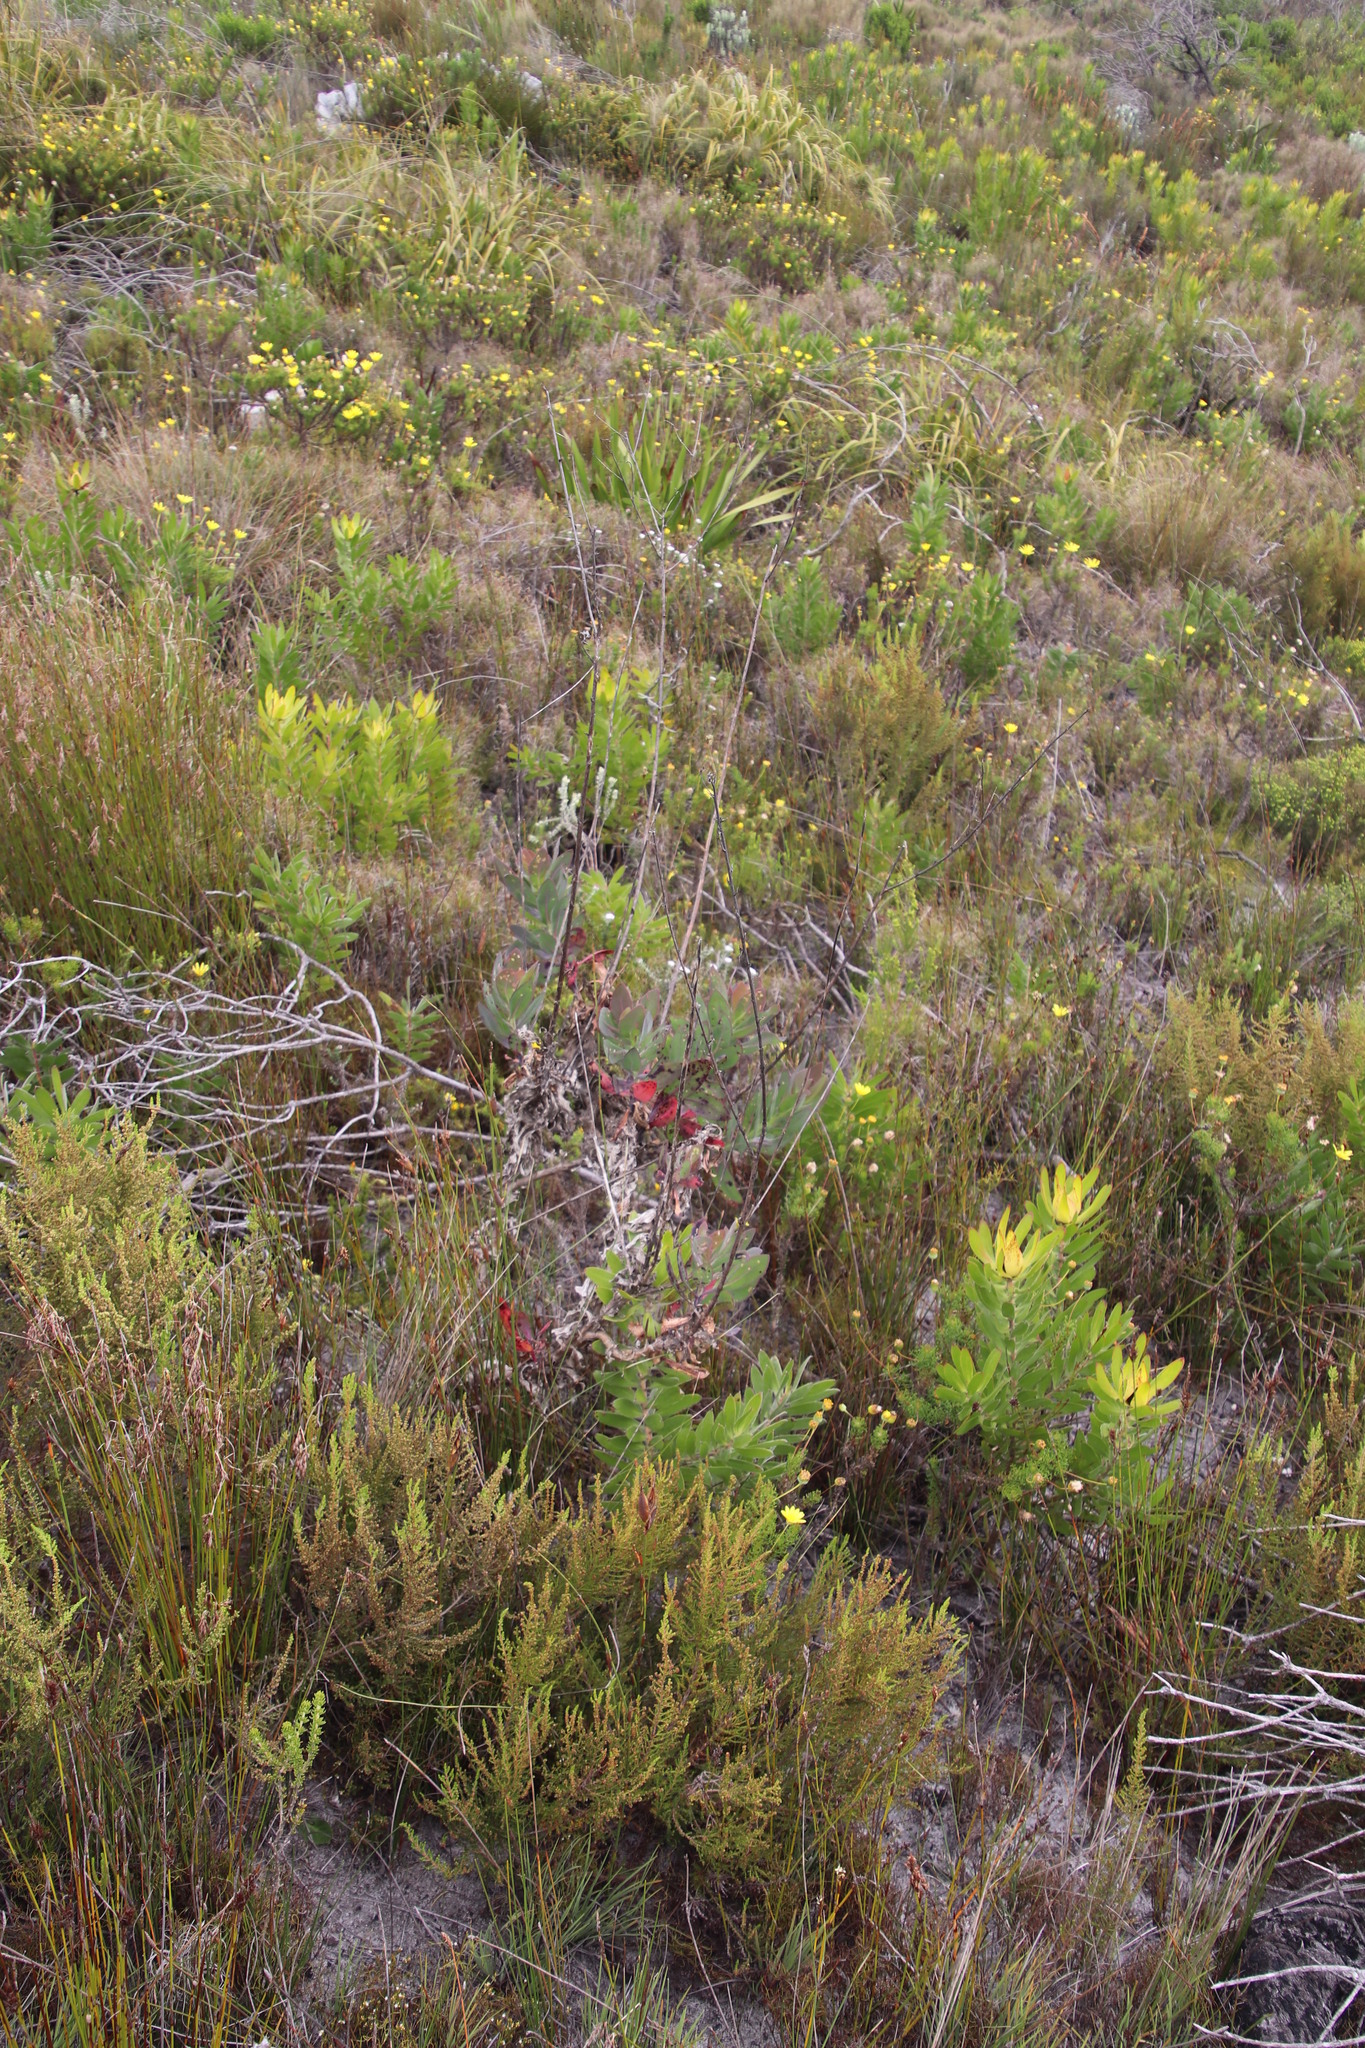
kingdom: Plantae
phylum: Tracheophyta
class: Magnoliopsida
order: Asterales
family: Asteraceae
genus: Othonna
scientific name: Othonna quinquedentata
